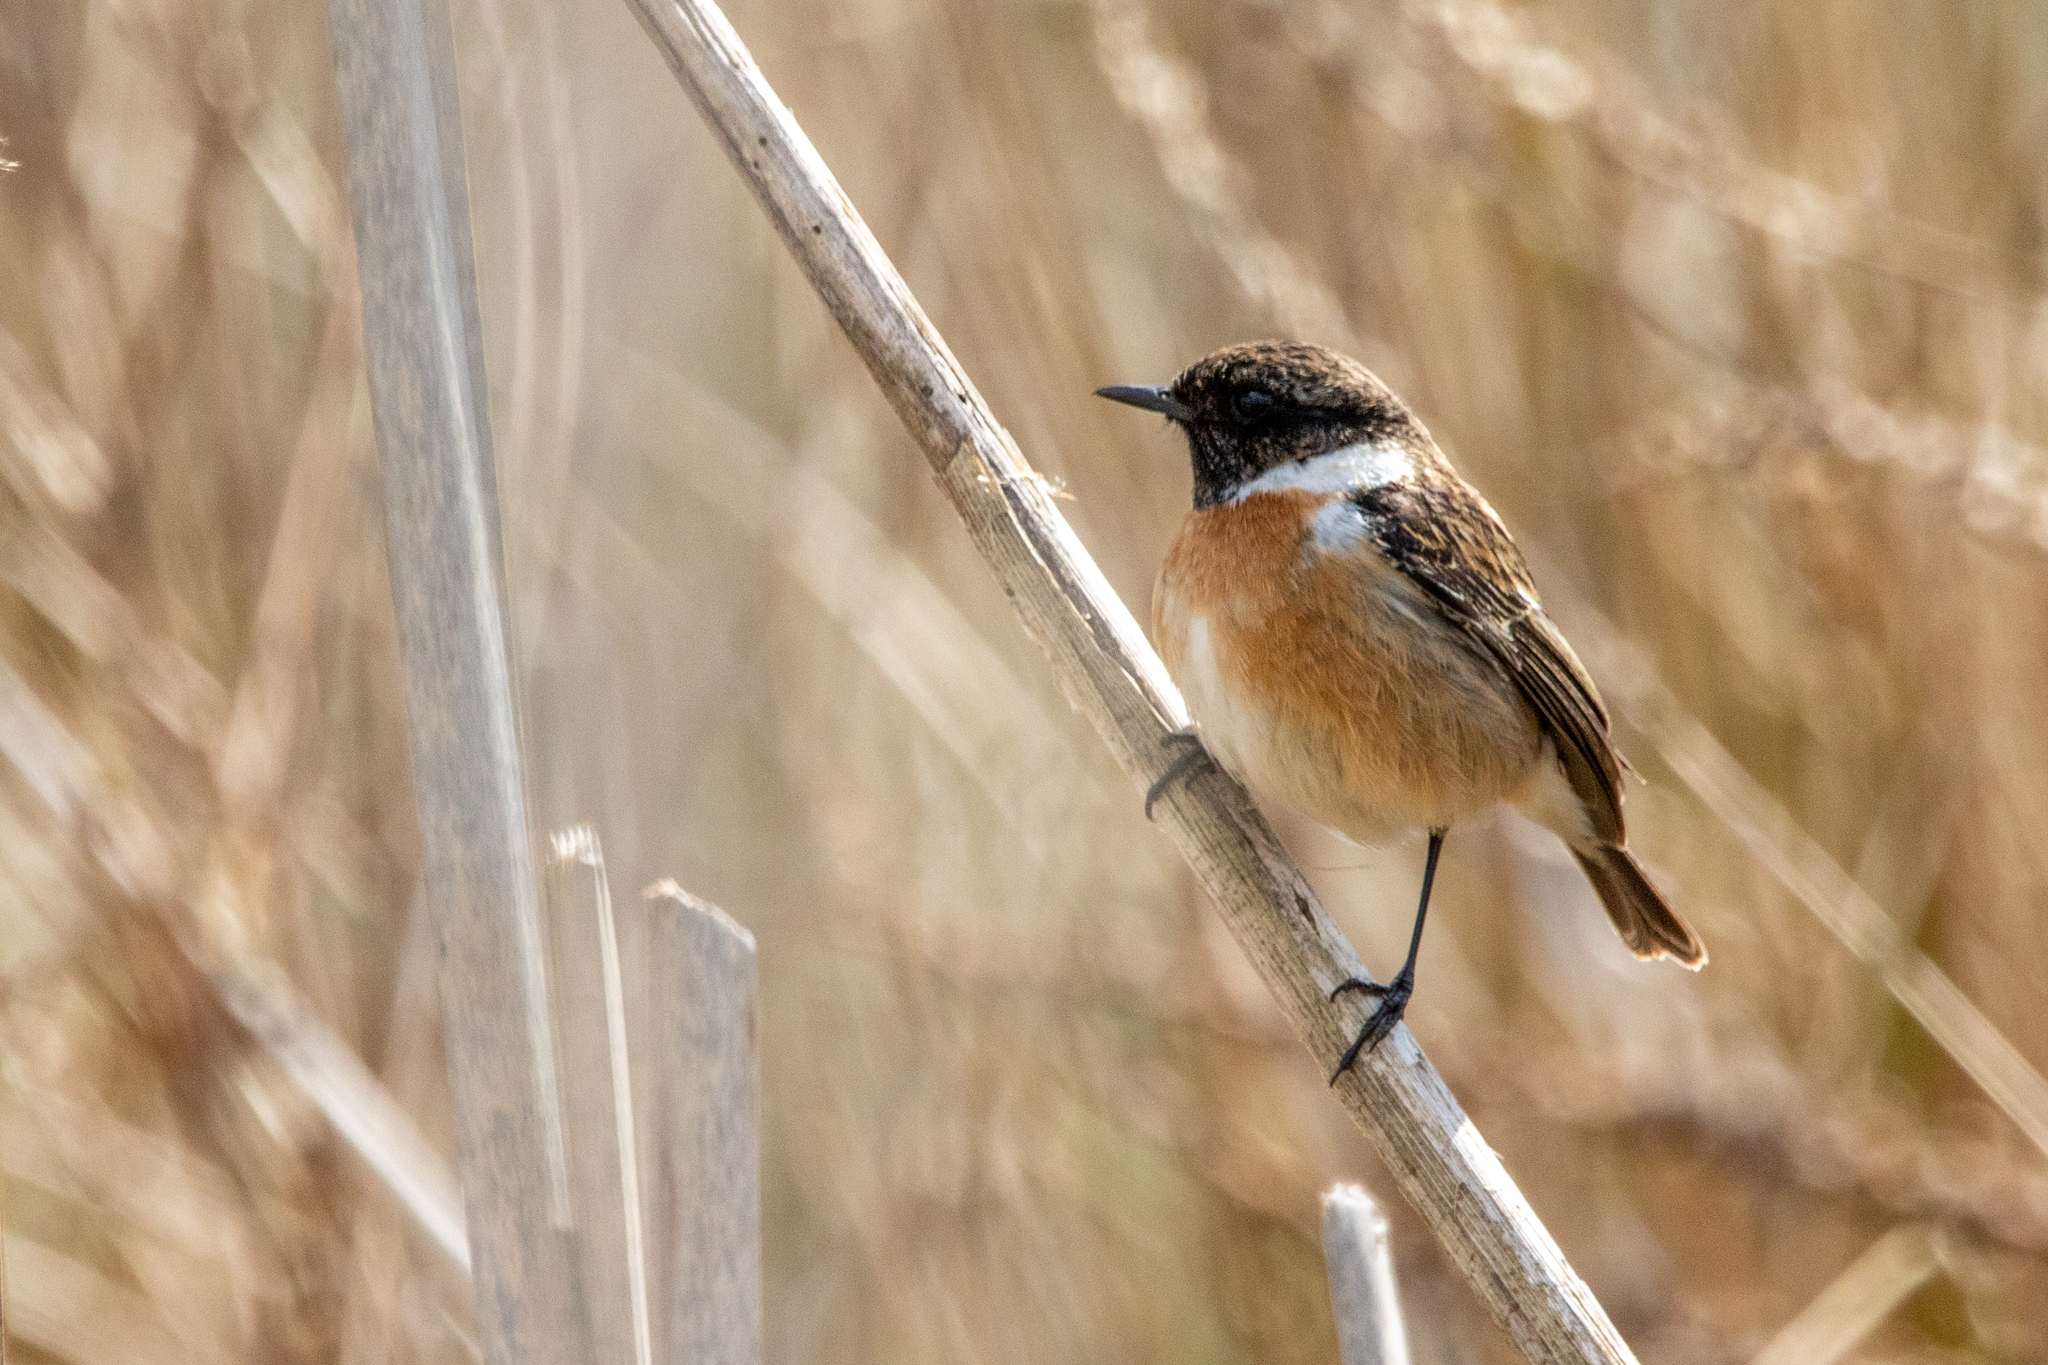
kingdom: Animalia
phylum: Chordata
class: Aves
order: Passeriformes
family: Muscicapidae
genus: Saxicola
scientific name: Saxicola rubicola
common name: European stonechat
